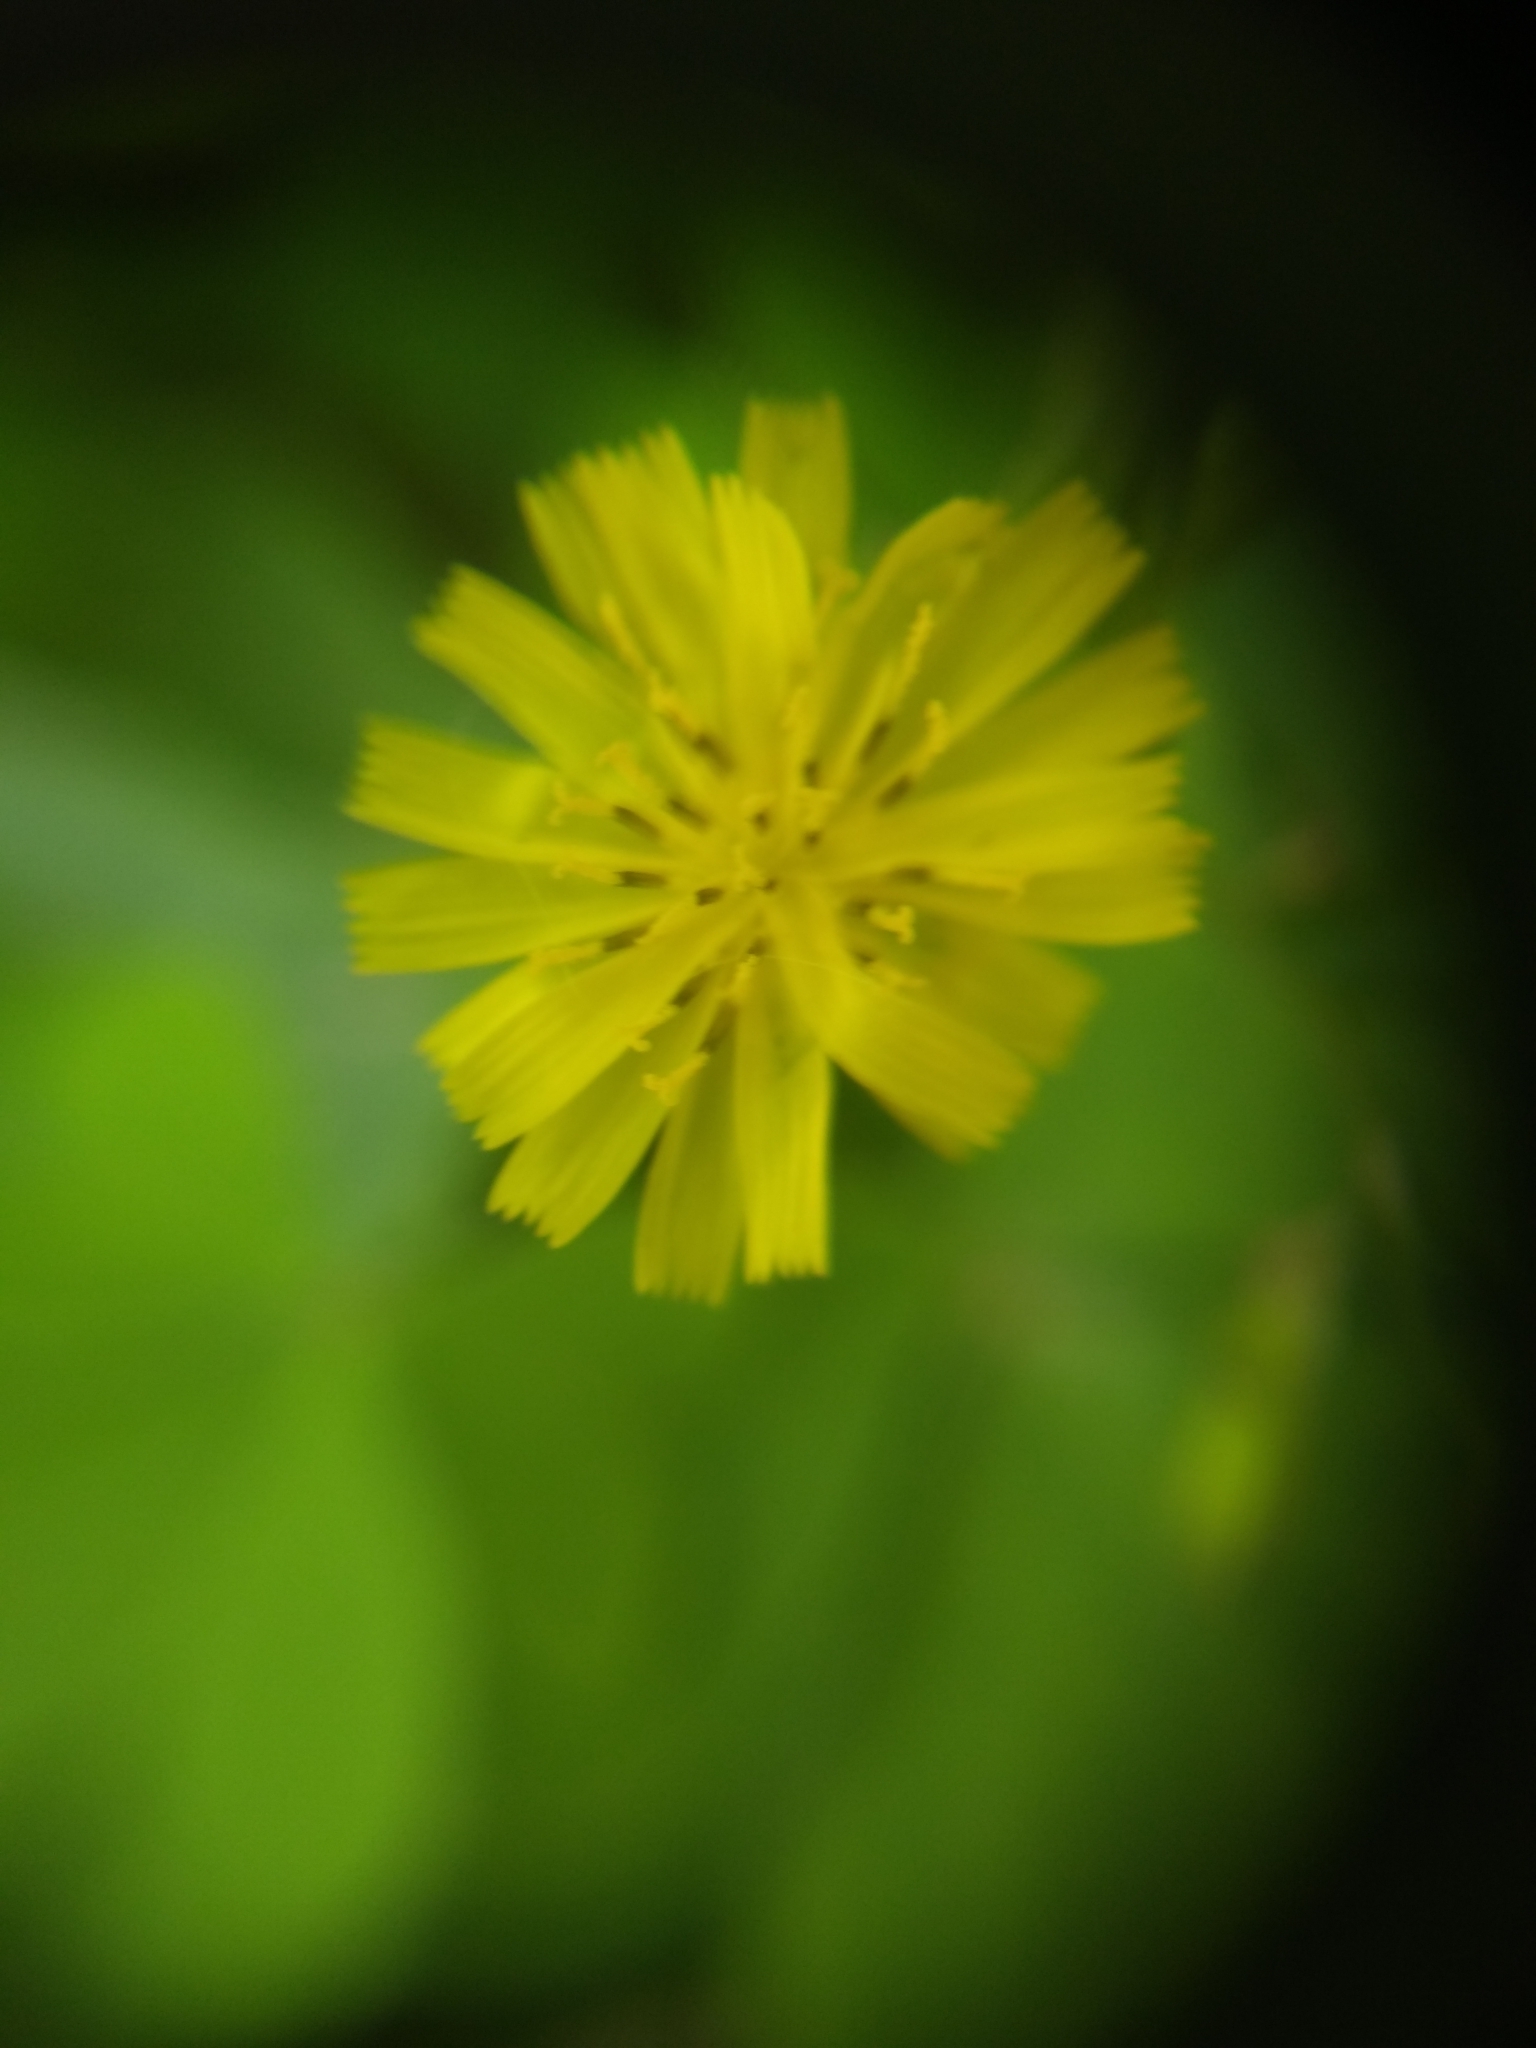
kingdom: Plantae
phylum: Tracheophyta
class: Magnoliopsida
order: Asterales
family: Asteraceae
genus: Youngia
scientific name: Youngia japonica
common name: Oriental false hawksbeard
